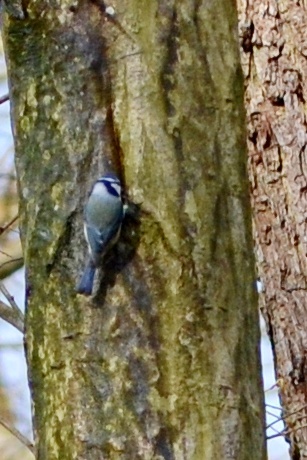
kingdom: Animalia
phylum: Chordata
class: Aves
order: Passeriformes
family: Paridae
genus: Cyanistes
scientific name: Cyanistes caeruleus
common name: Eurasian blue tit
